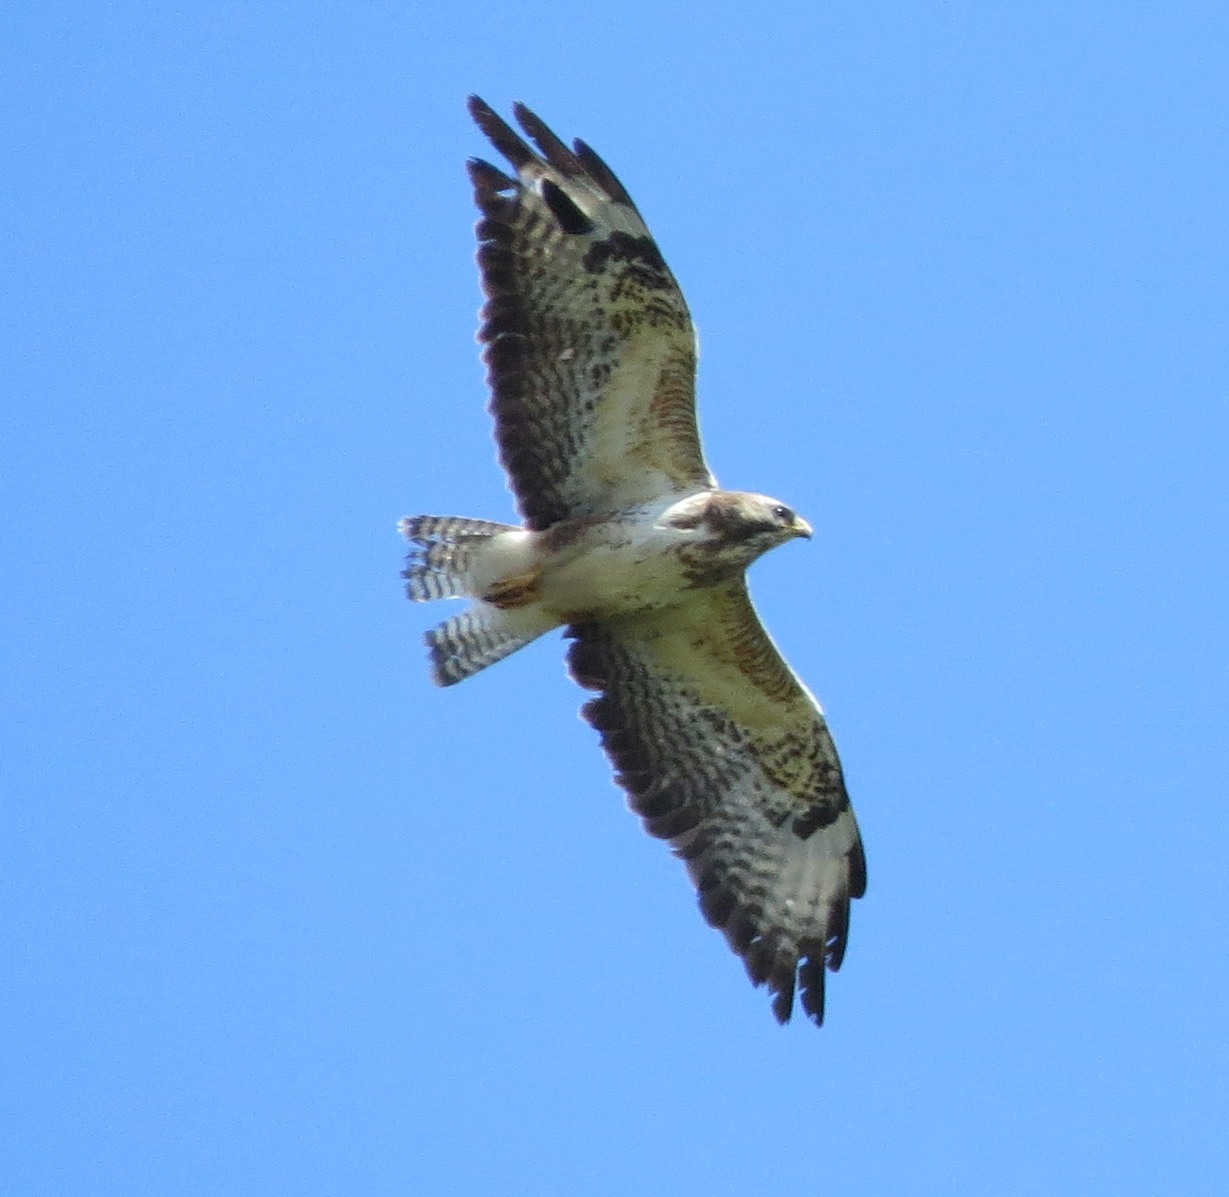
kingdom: Animalia
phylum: Chordata
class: Aves
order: Accipitriformes
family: Accipitridae
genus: Buteo
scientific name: Buteo buteo
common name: Common buzzard
